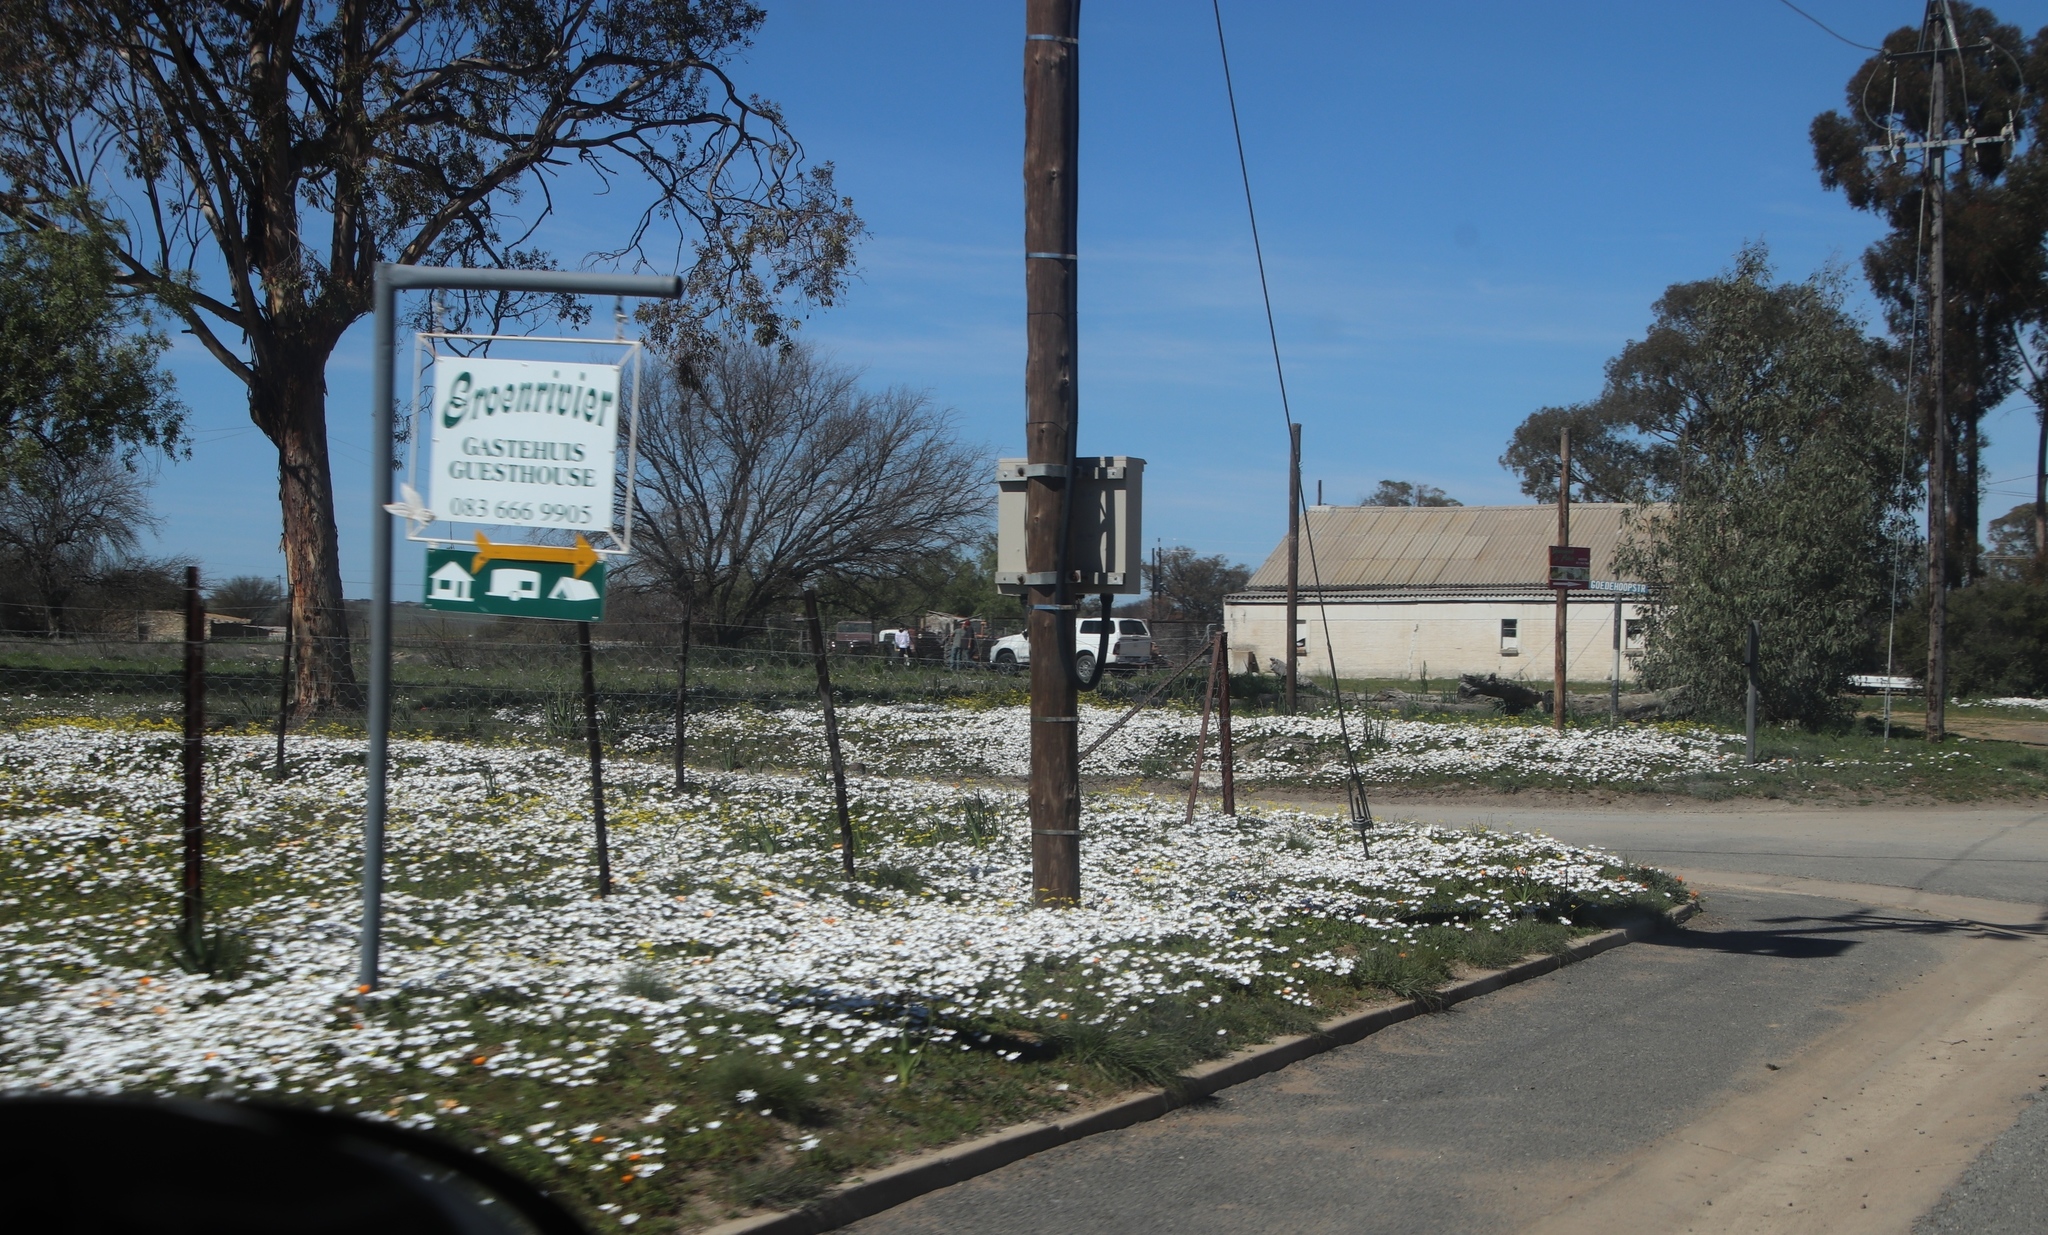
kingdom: Plantae
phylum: Tracheophyta
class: Magnoliopsida
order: Asterales
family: Asteraceae
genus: Dimorphotheca
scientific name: Dimorphotheca pluvialis
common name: Weather prophet
